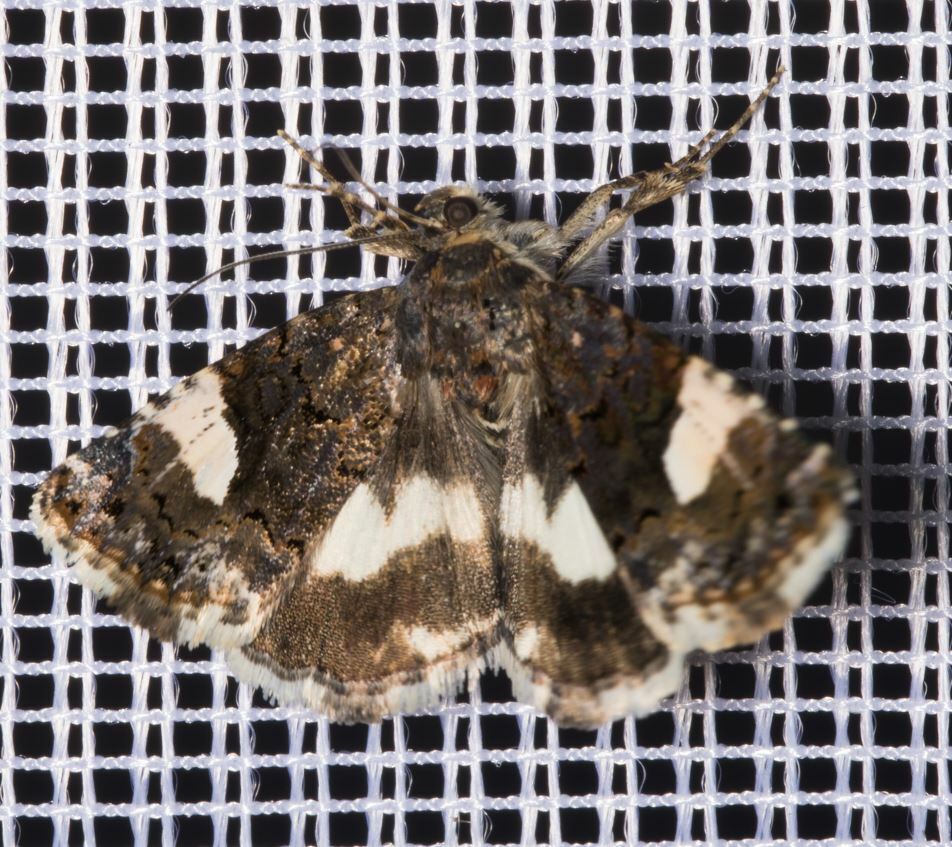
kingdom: Animalia
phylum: Arthropoda
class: Insecta
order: Lepidoptera
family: Erebidae
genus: Tyta
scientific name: Tyta luctuosa
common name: Four-spotted
